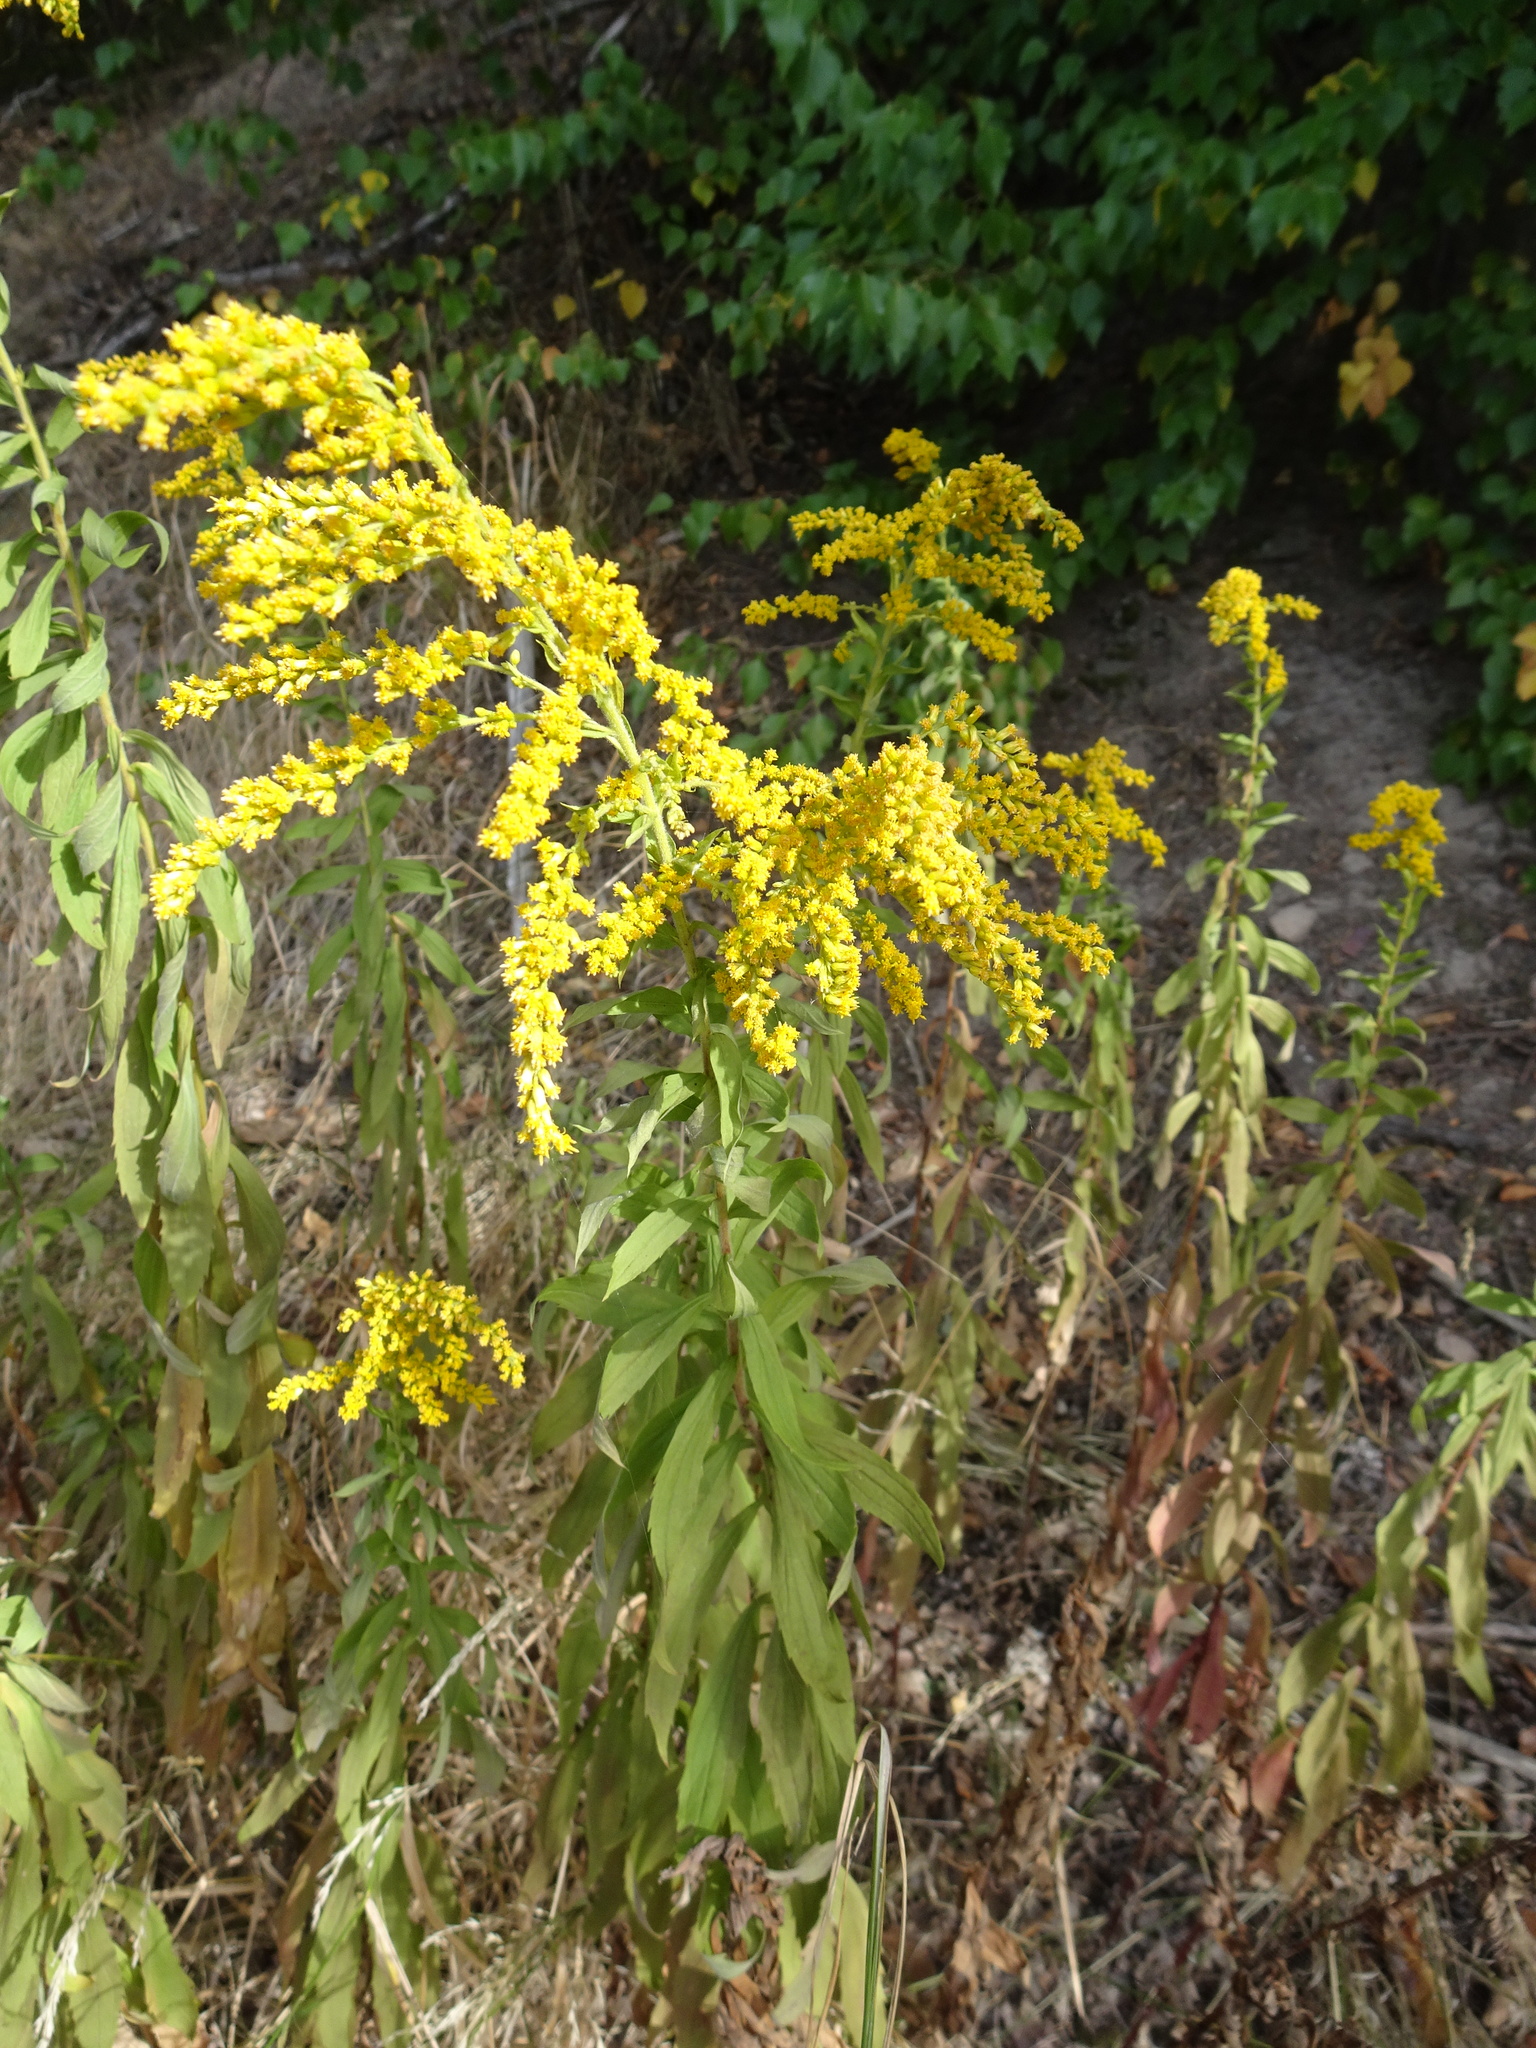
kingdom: Plantae
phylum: Tracheophyta
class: Magnoliopsida
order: Asterales
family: Asteraceae
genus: Solidago
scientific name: Solidago canadensis
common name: Canada goldenrod
